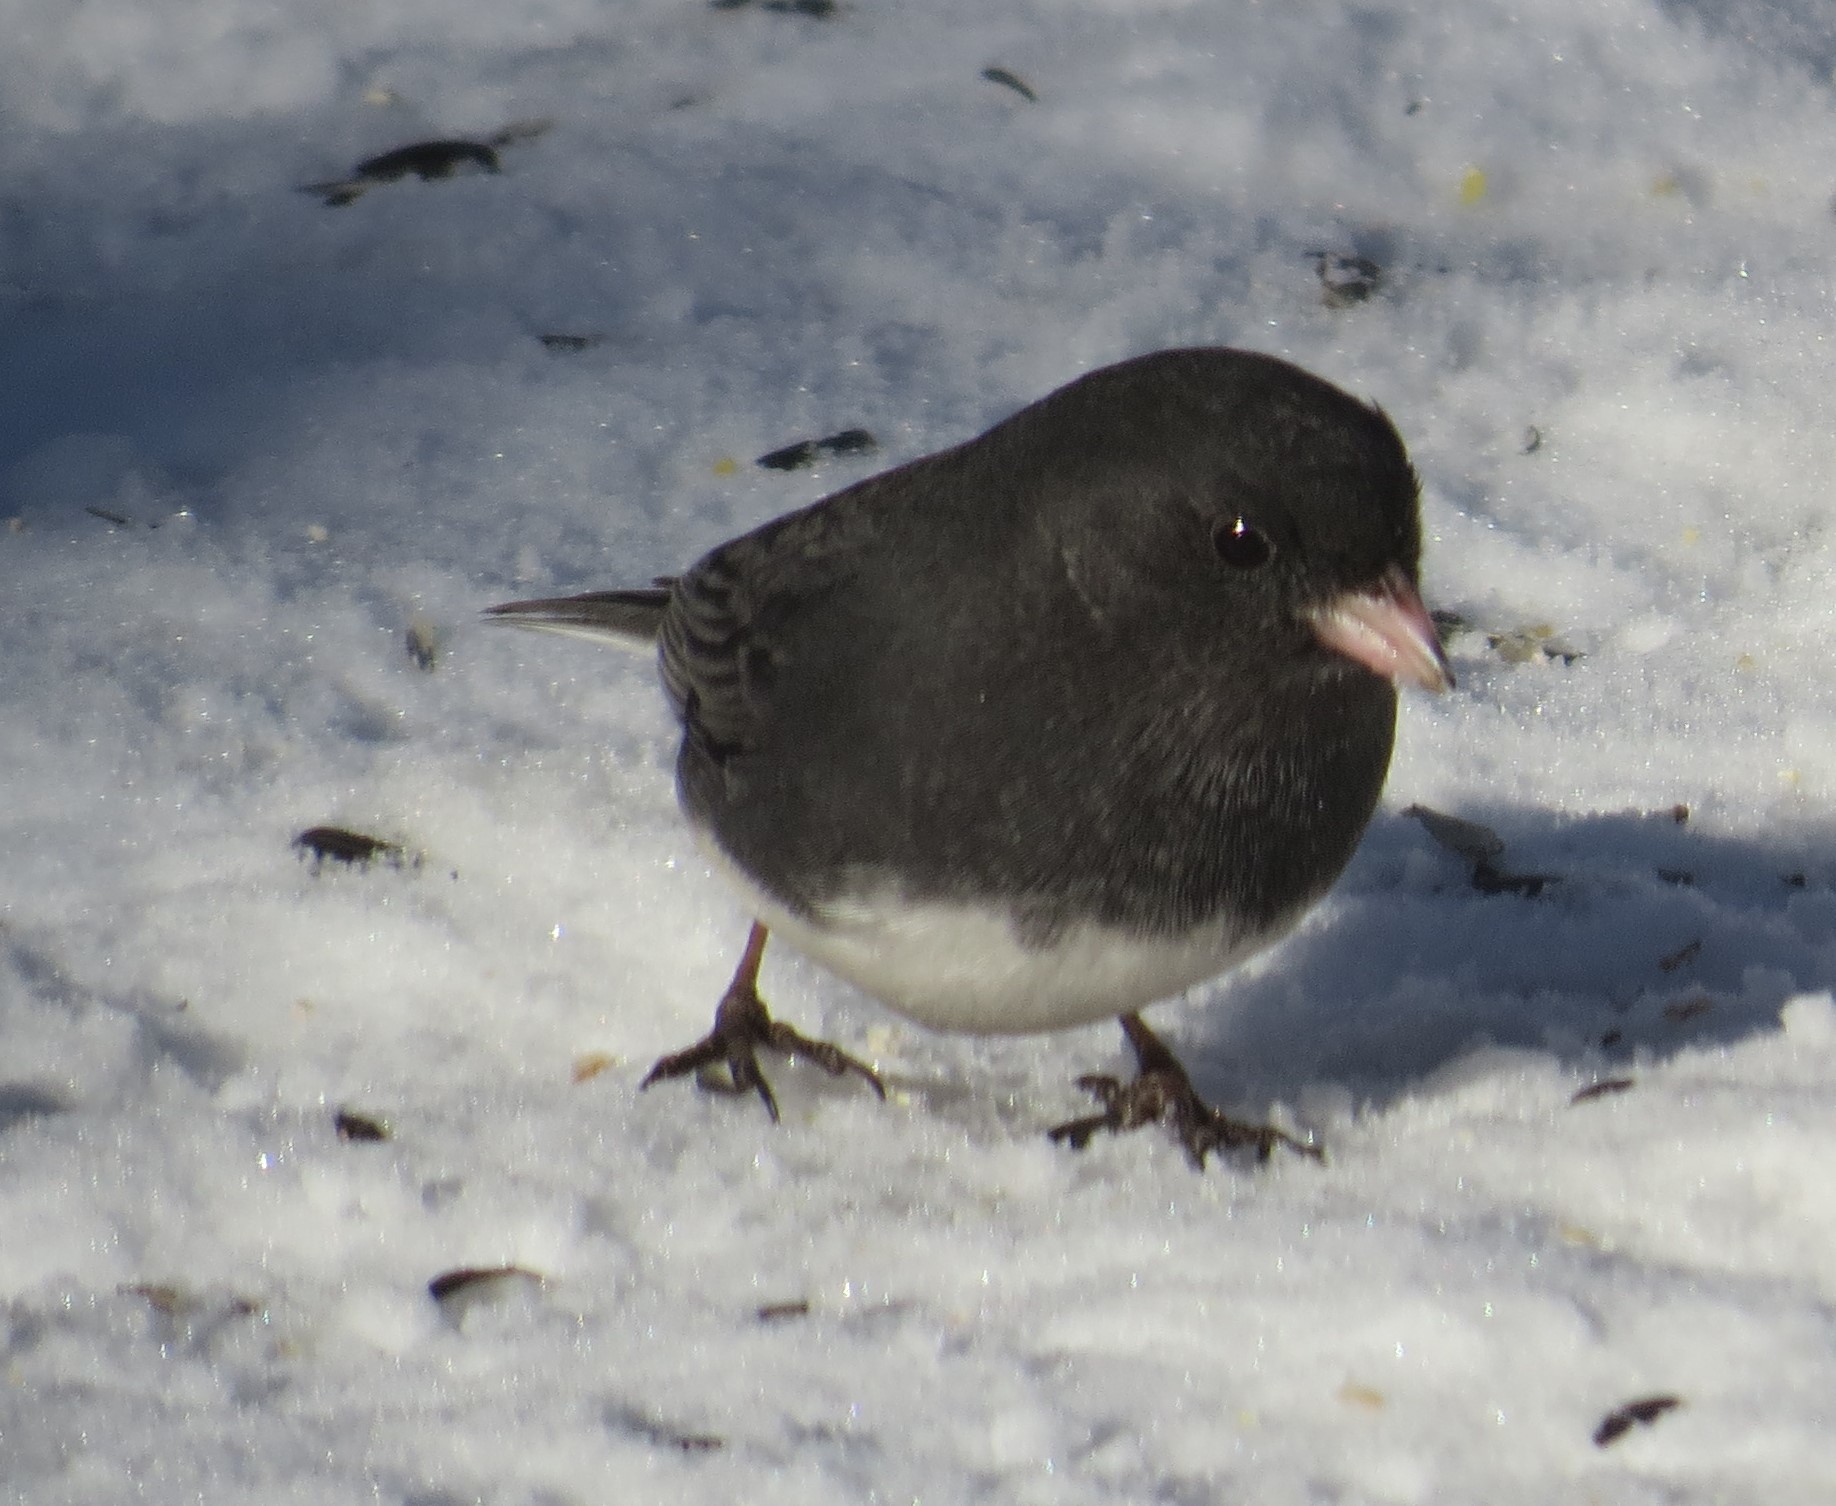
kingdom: Animalia
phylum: Chordata
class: Aves
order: Passeriformes
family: Passerellidae
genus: Junco
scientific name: Junco hyemalis
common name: Dark-eyed junco
